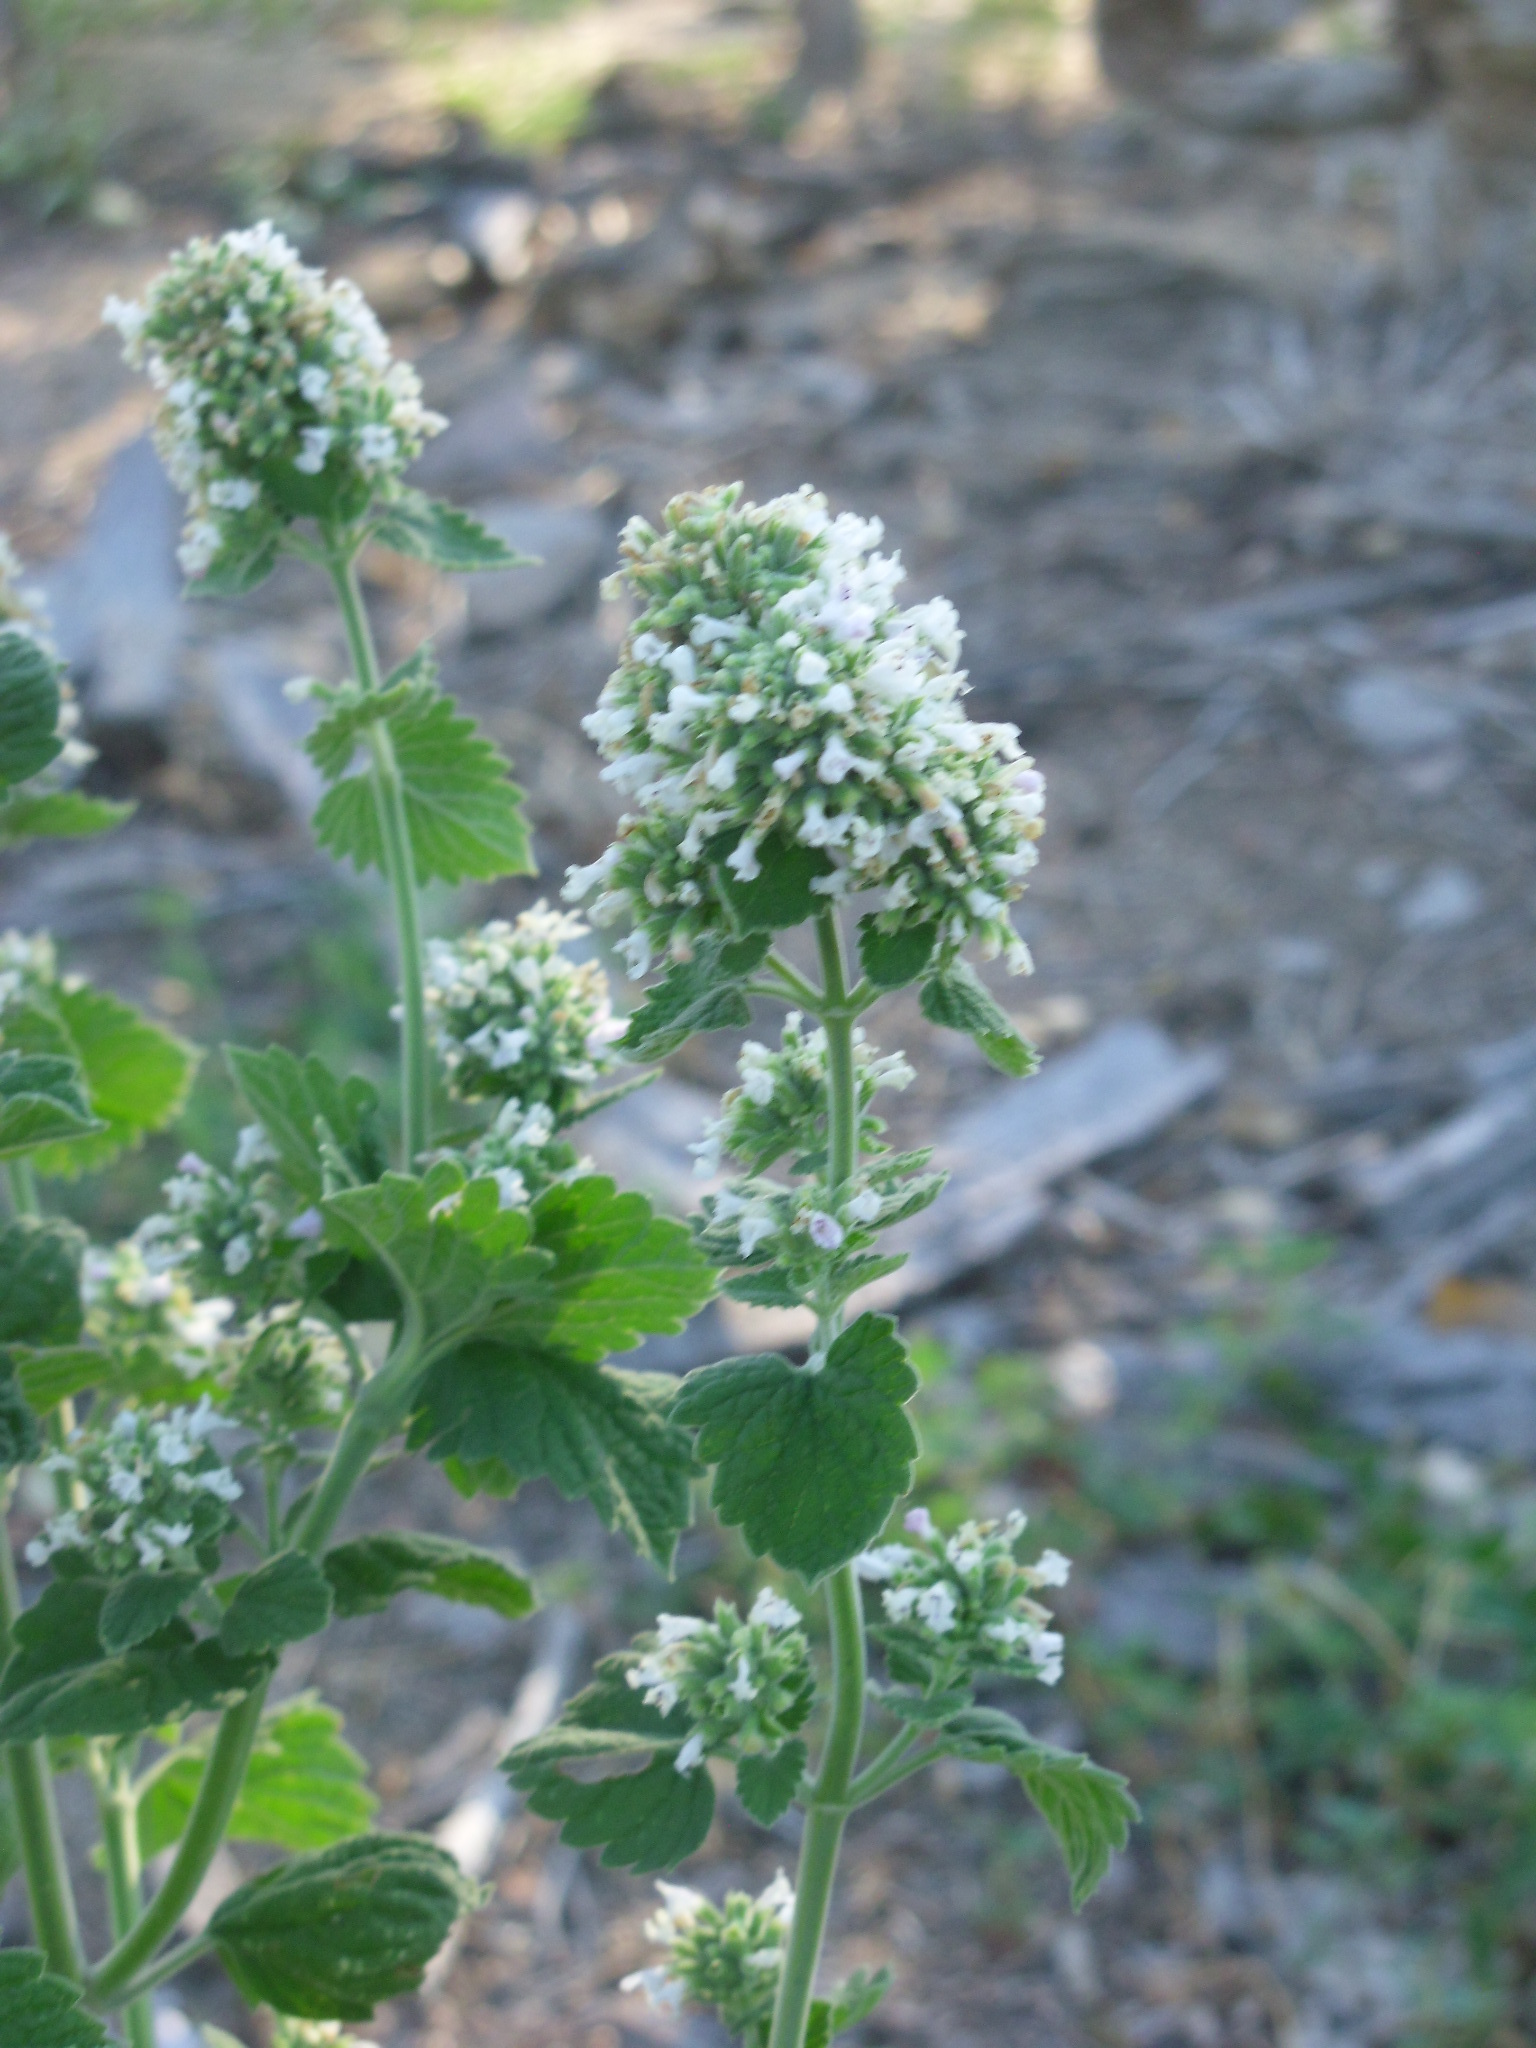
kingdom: Plantae
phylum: Tracheophyta
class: Magnoliopsida
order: Lamiales
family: Lamiaceae
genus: Nepeta
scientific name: Nepeta cataria
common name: Catnip
